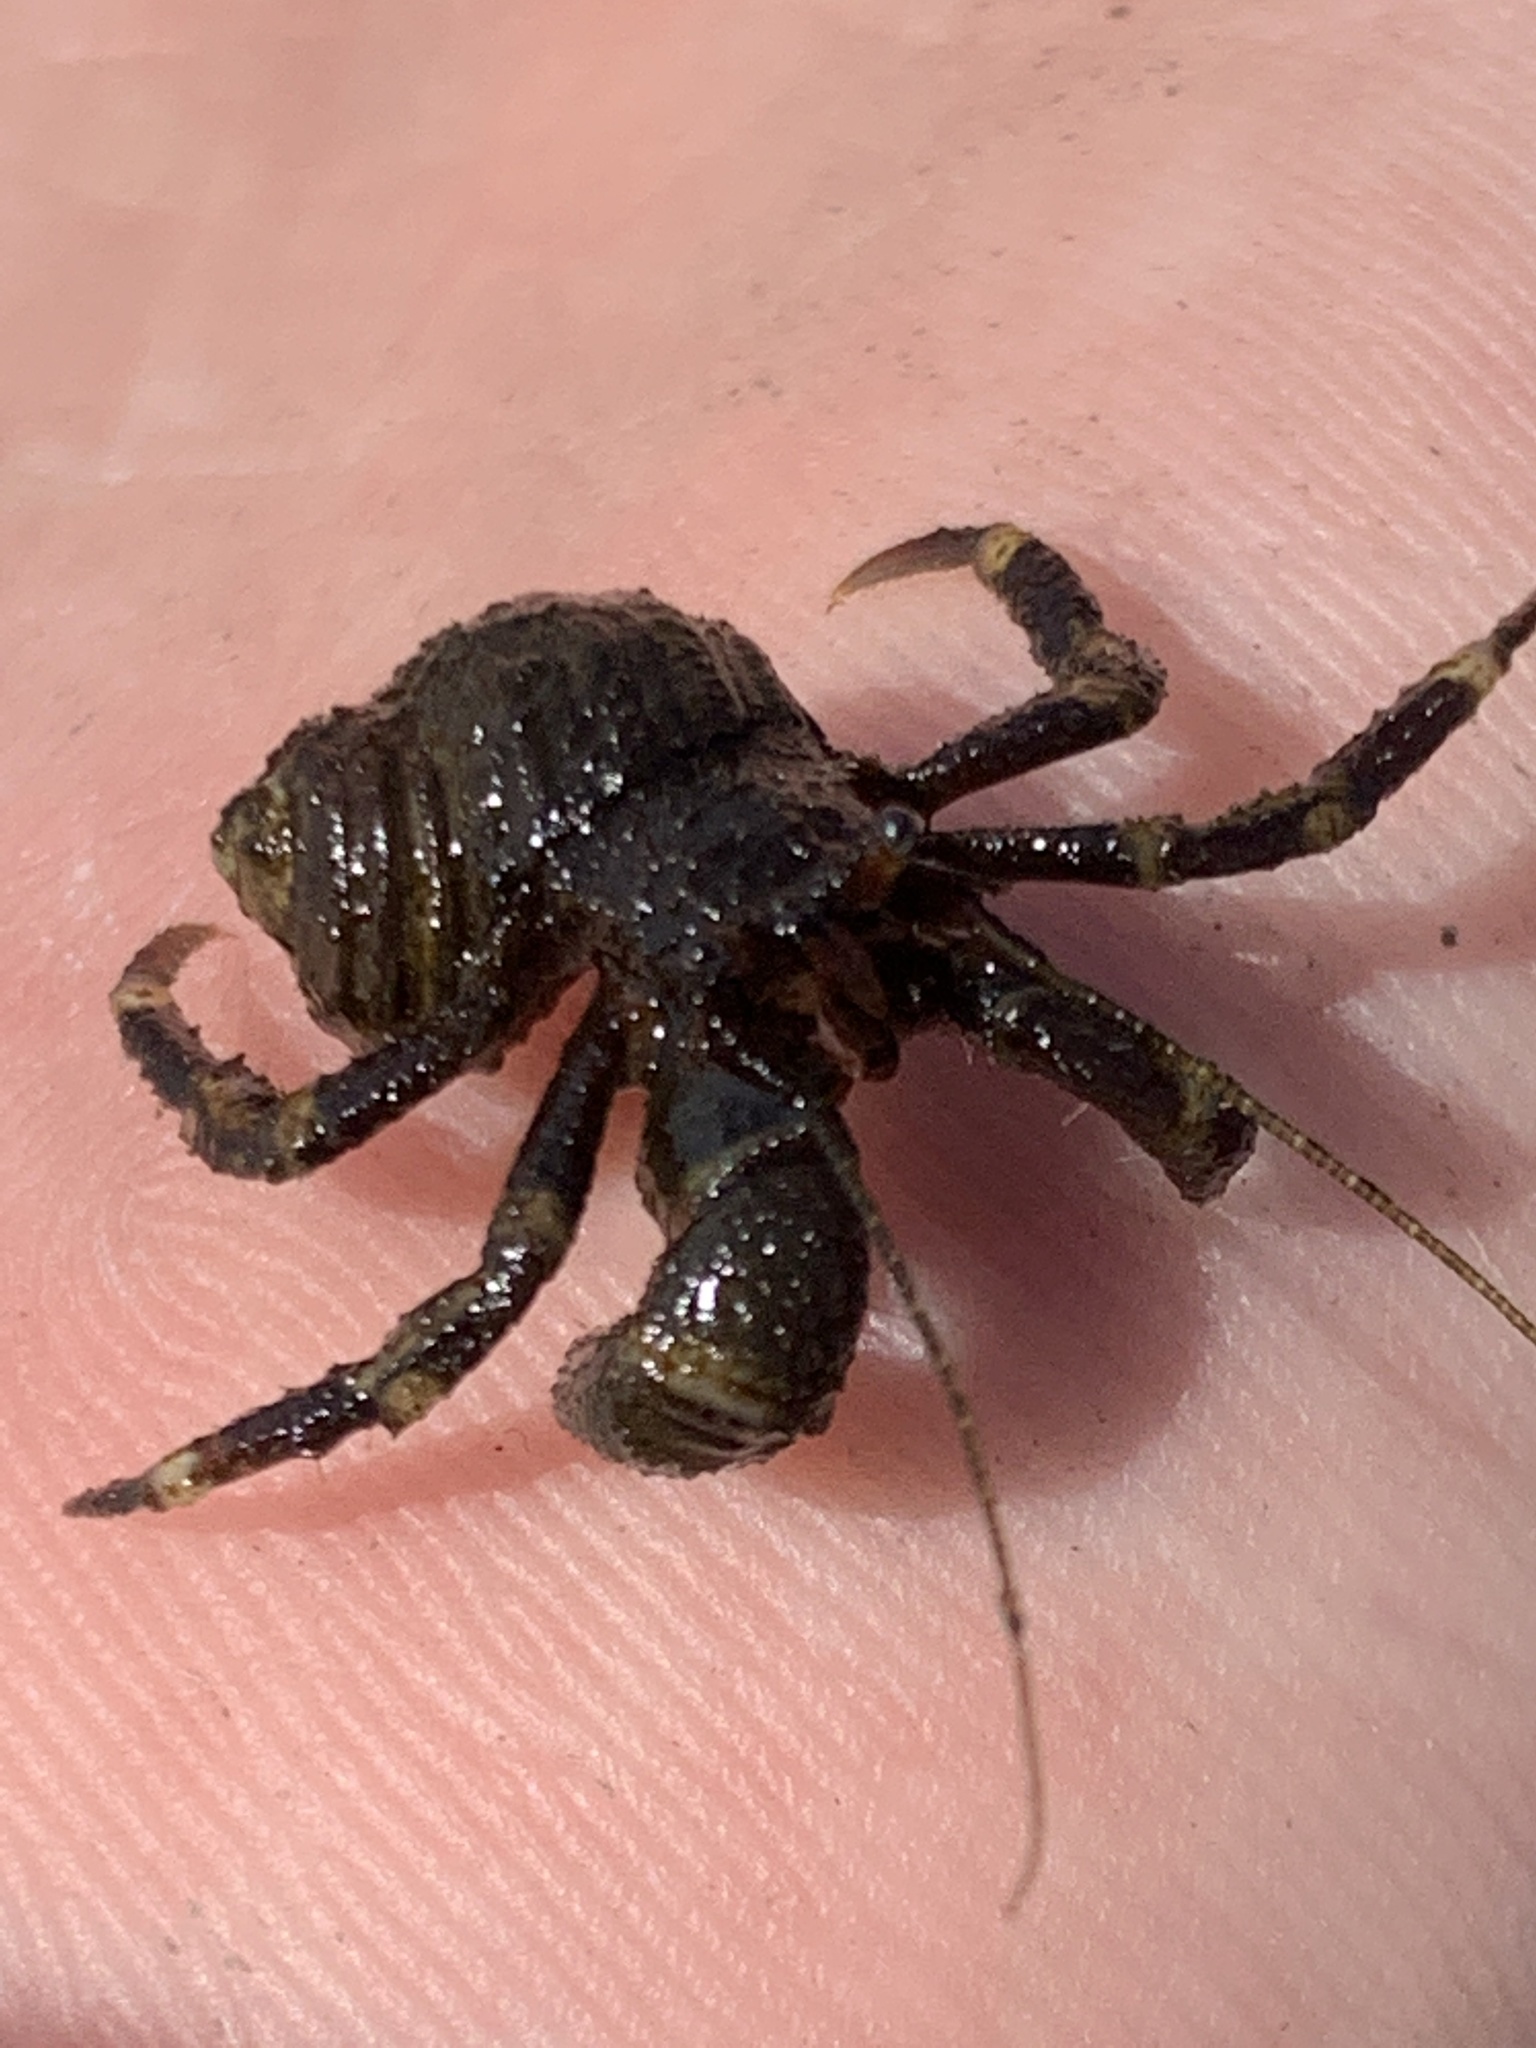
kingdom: Animalia
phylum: Arthropoda
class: Malacostraca
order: Decapoda
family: Paguridae
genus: Pagurus
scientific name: Pagurus hirsutiusculus
